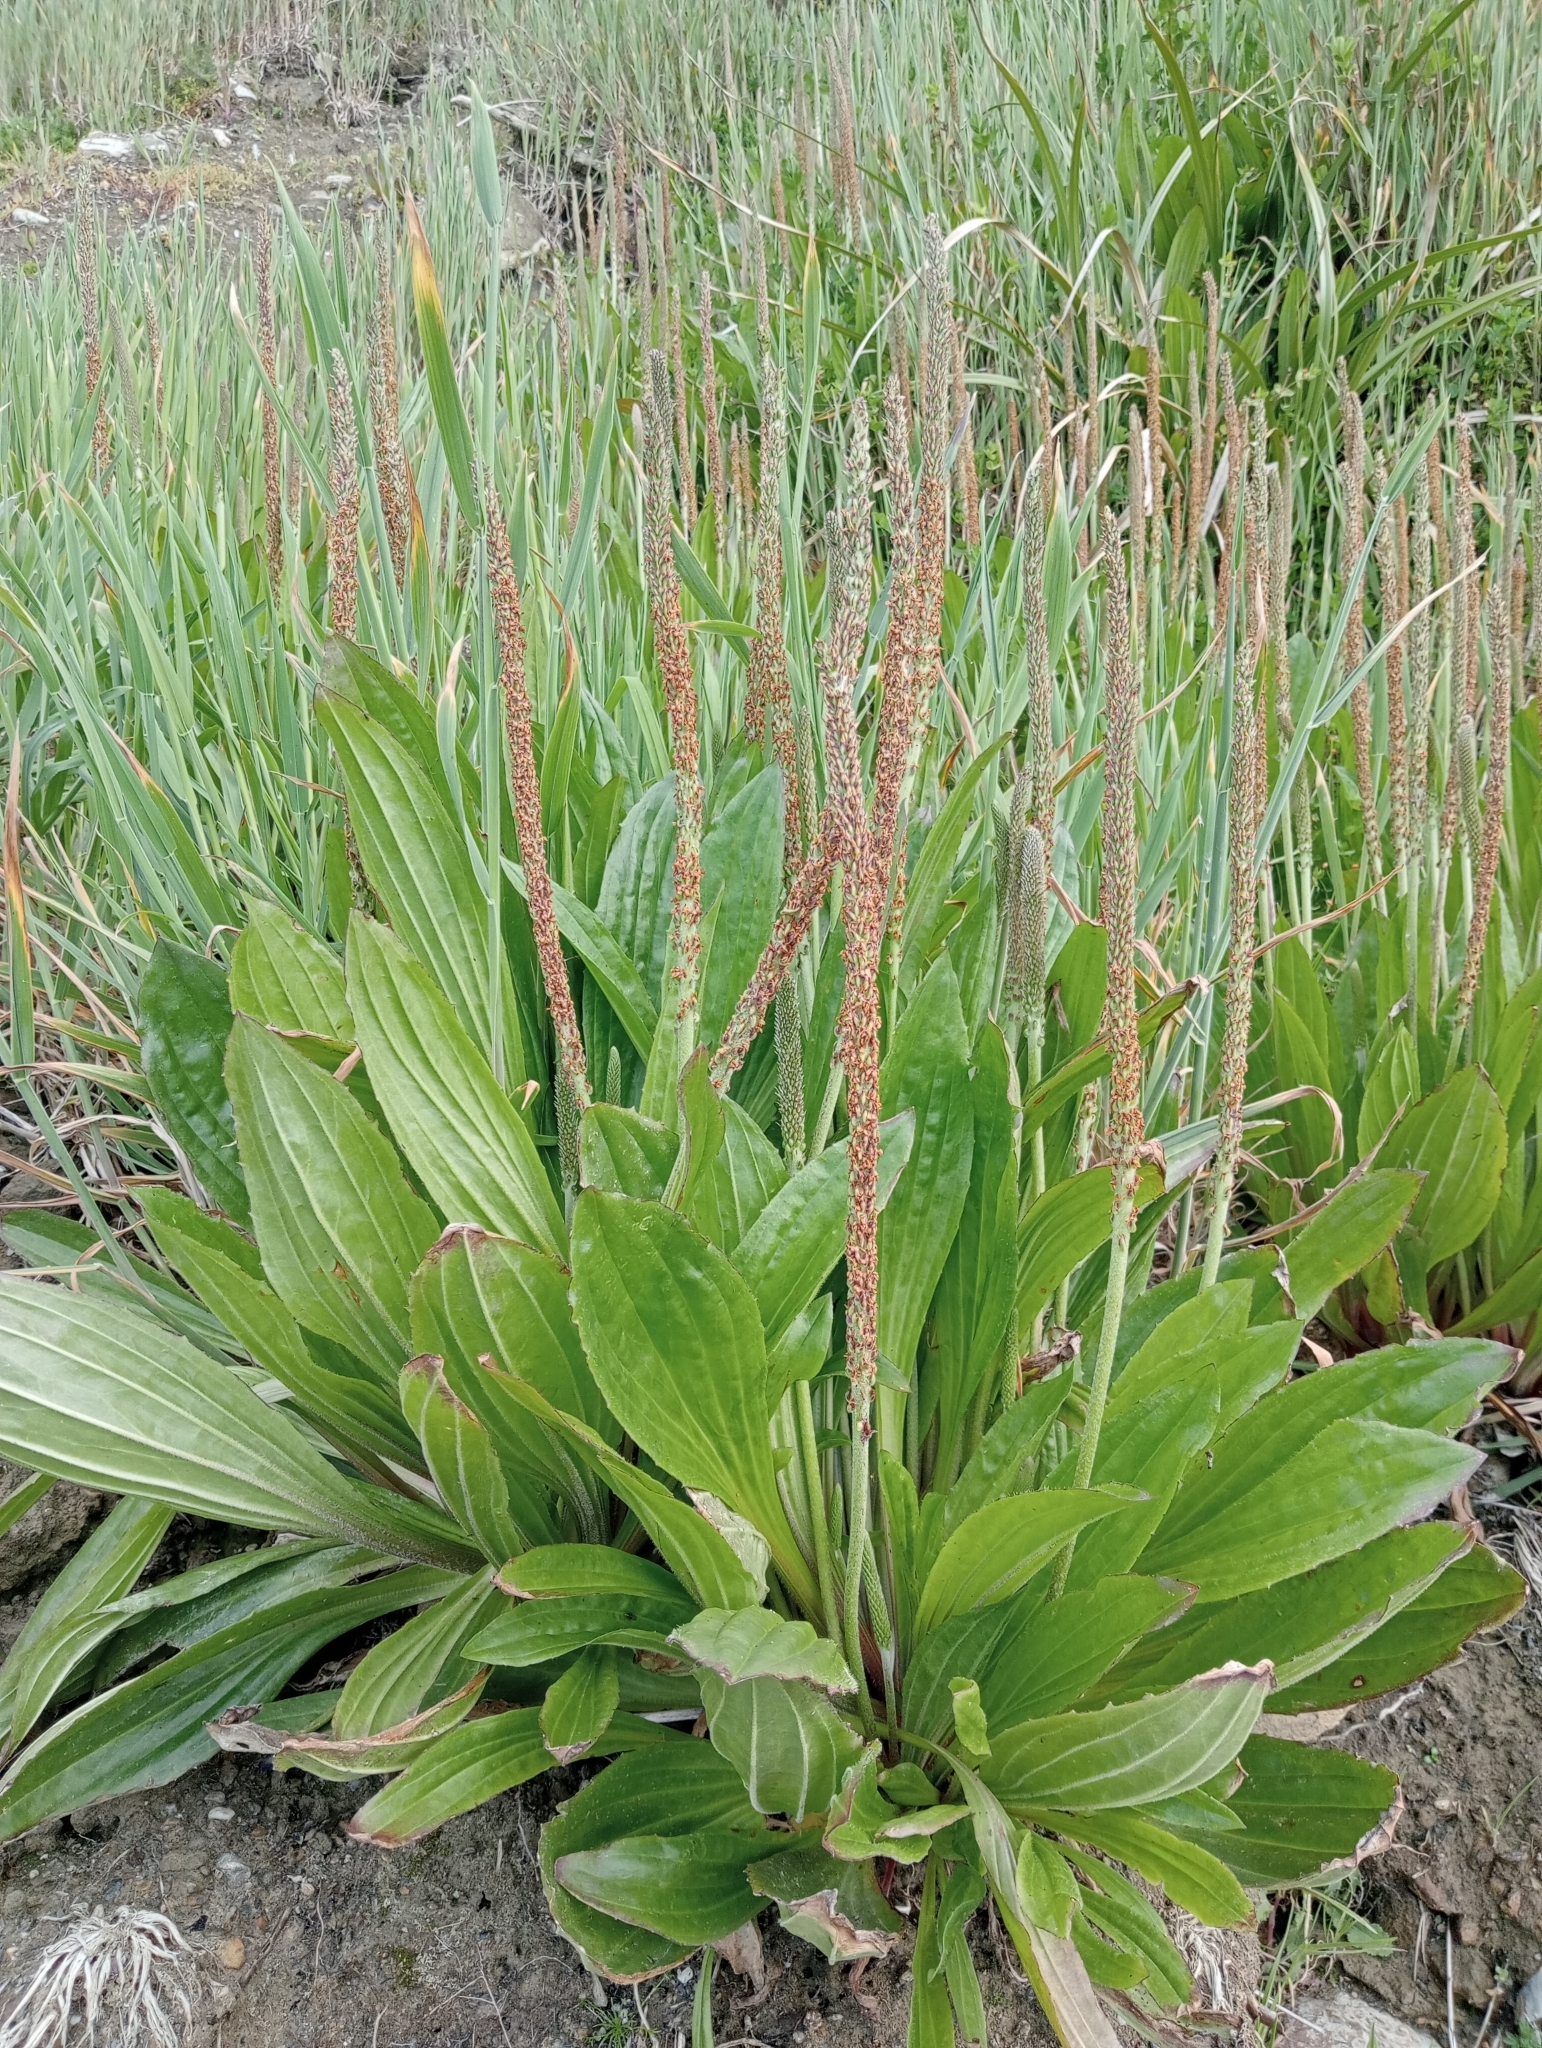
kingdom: Plantae
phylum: Tracheophyta
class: Magnoliopsida
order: Lamiales
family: Plantaginaceae
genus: Plantago
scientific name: Plantago australis
